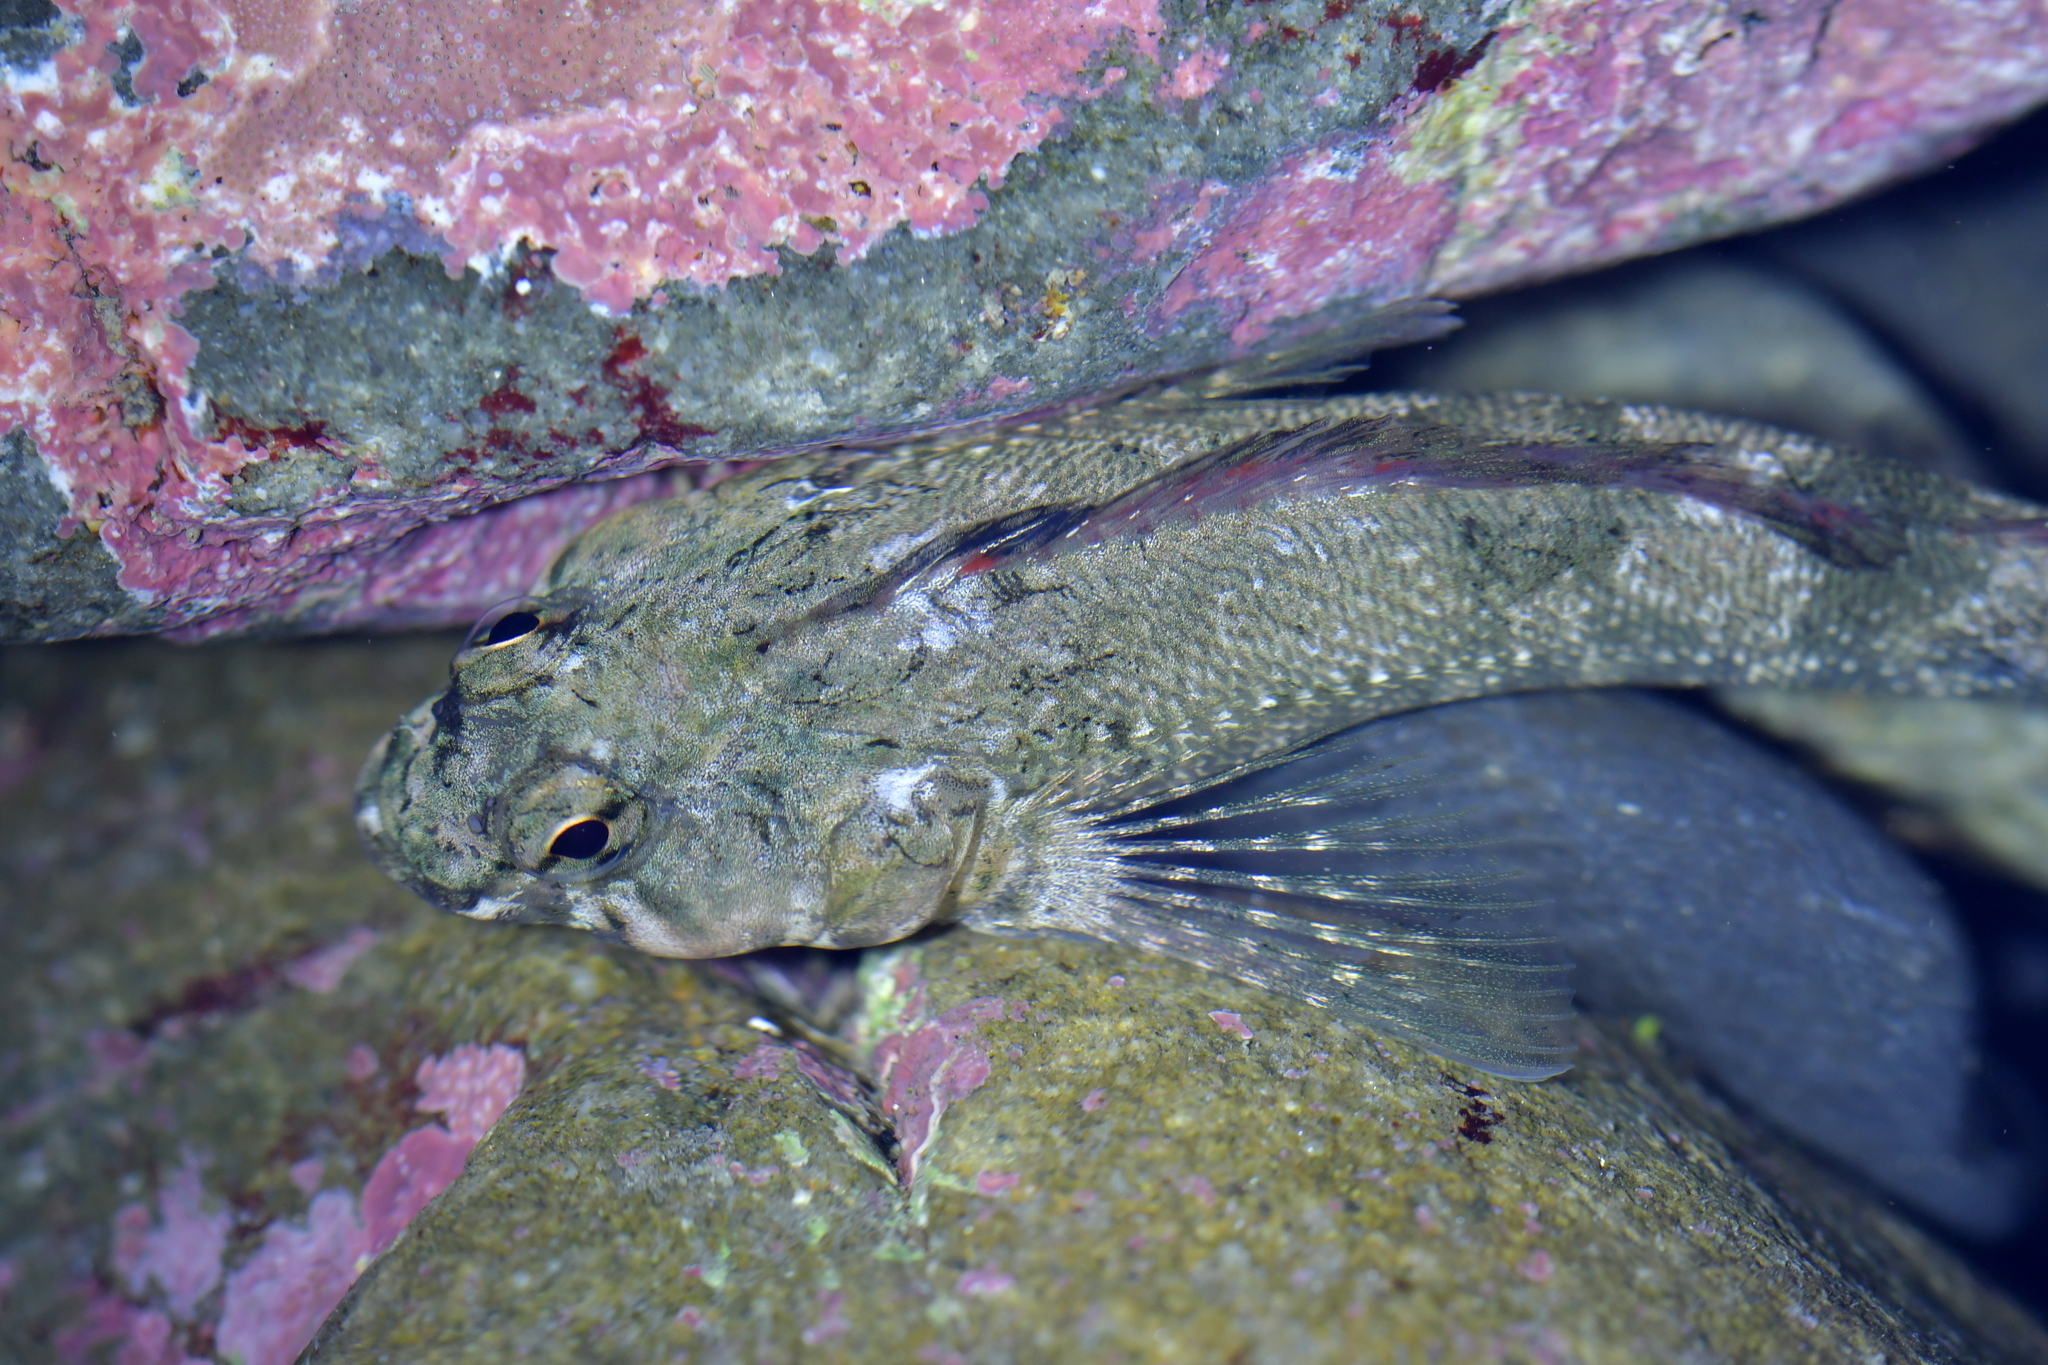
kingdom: Animalia
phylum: Chordata
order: Perciformes
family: Tripterygiidae
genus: Bellapiscis
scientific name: Bellapiscis medius
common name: Twister
